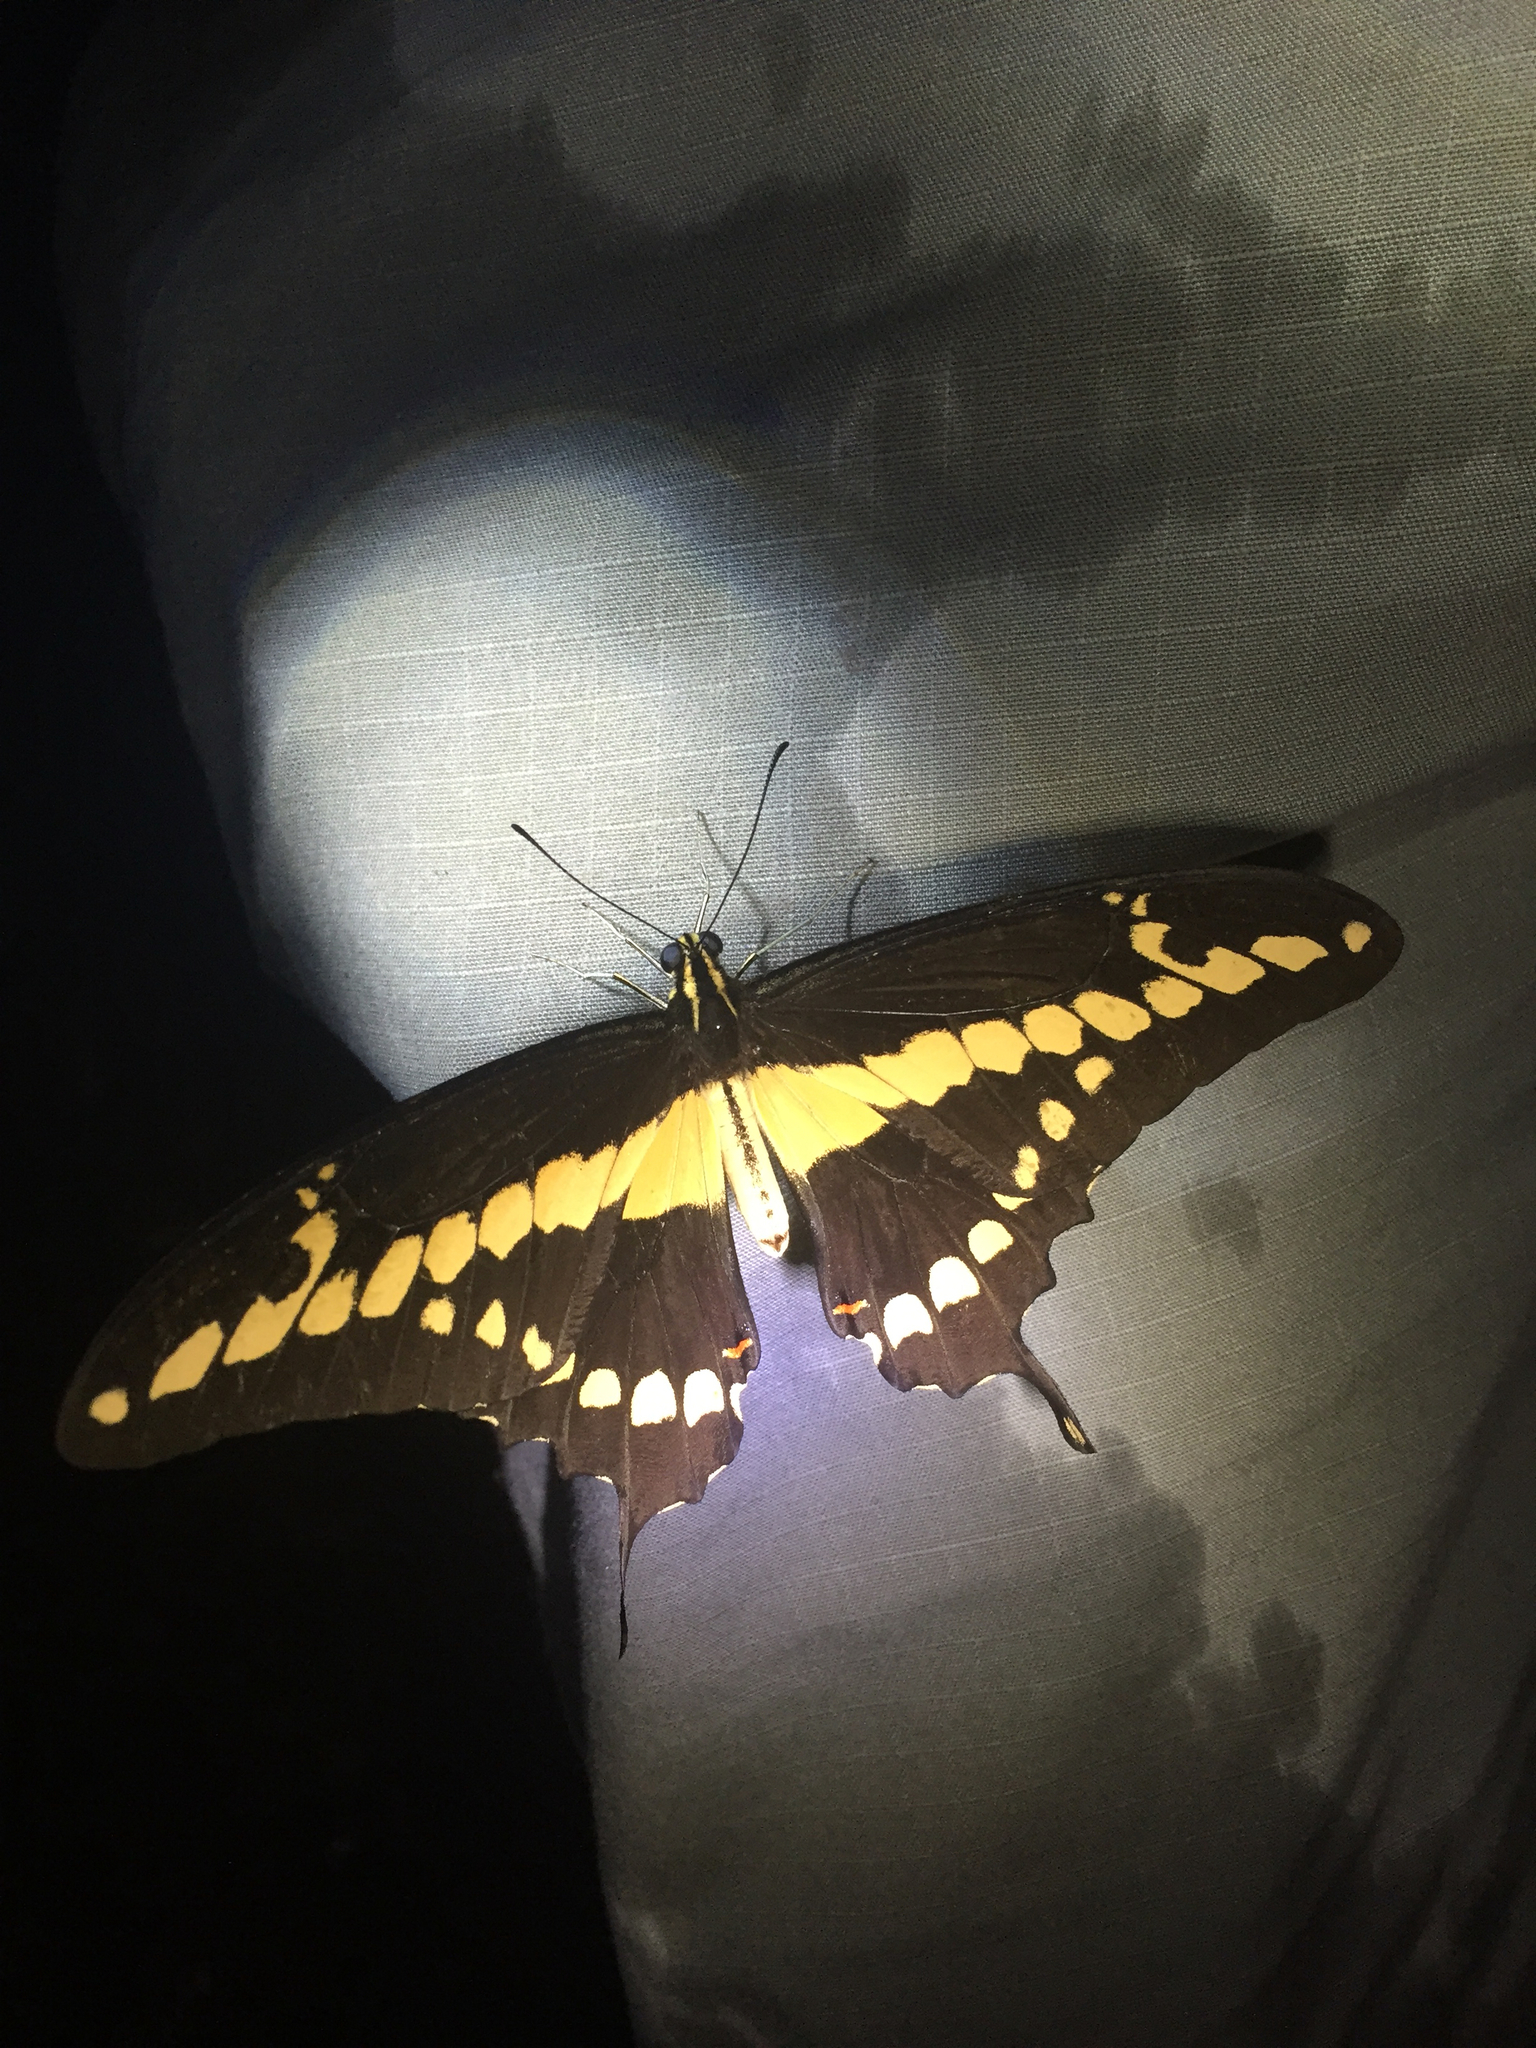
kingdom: Animalia
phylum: Arthropoda
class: Insecta
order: Lepidoptera
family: Papilionidae
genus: Papilio
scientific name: Papilio rumiko
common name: Western giant swallowtail
